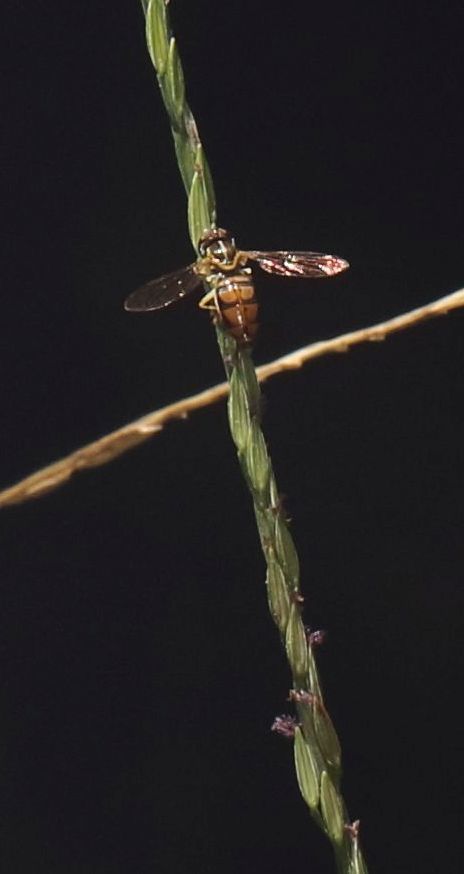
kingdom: Animalia
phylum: Arthropoda
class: Insecta
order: Diptera
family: Syrphidae
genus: Toxomerus
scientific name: Toxomerus floralis
